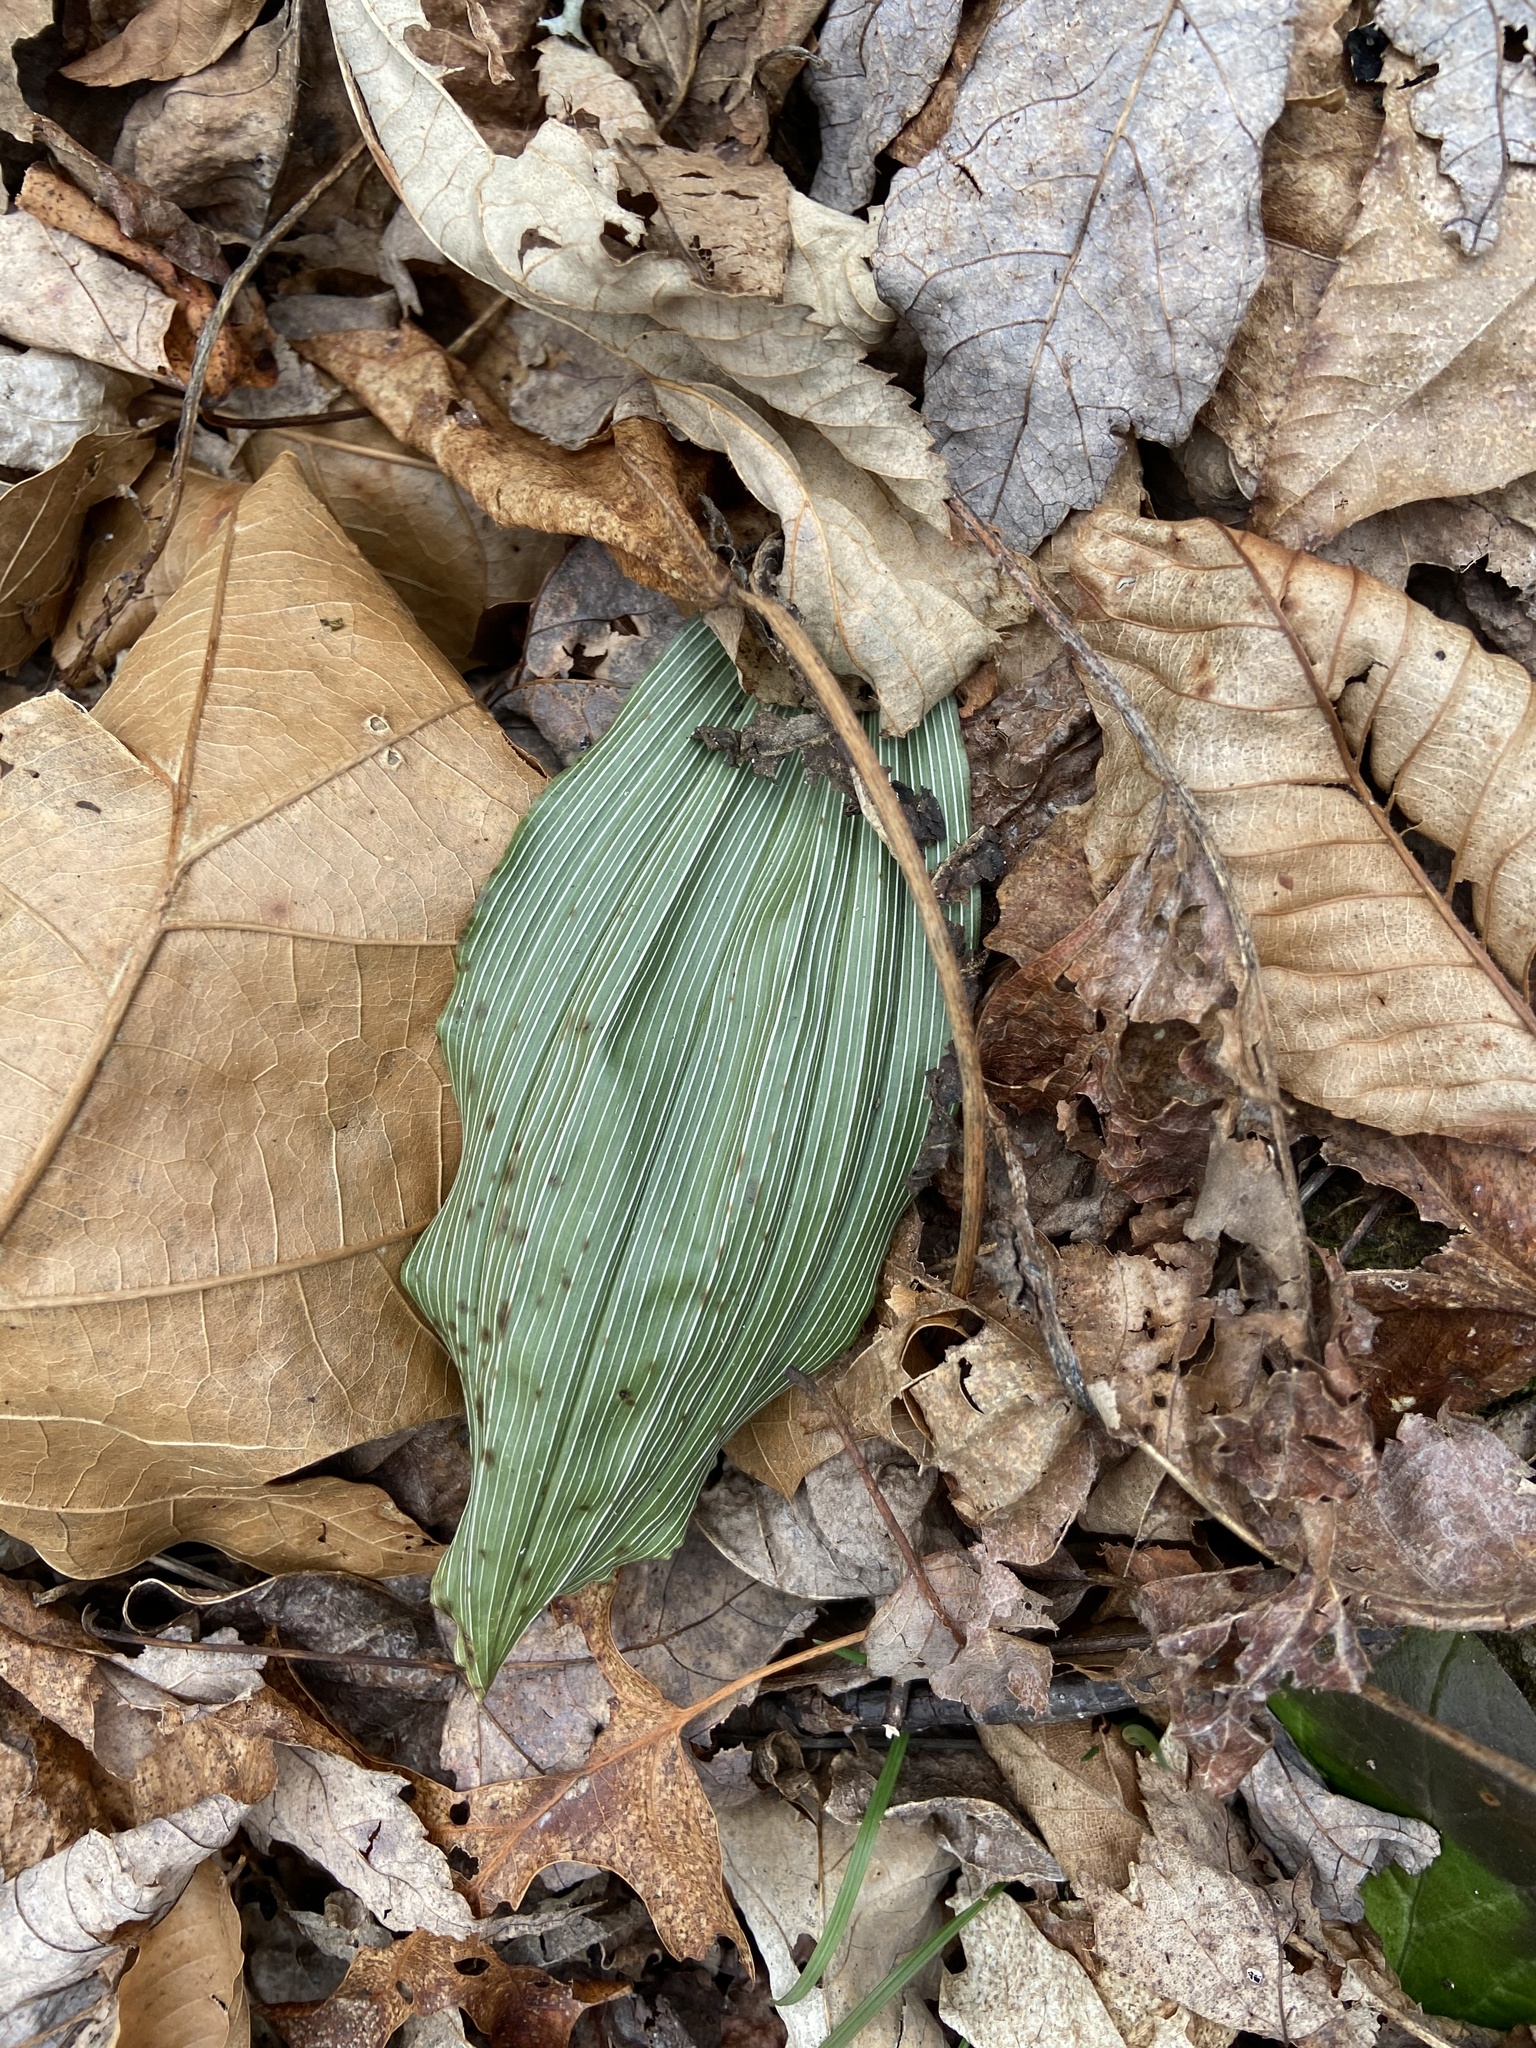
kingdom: Plantae
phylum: Tracheophyta
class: Liliopsida
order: Asparagales
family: Orchidaceae
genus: Aplectrum
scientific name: Aplectrum hyemale
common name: Adam-and-eve
